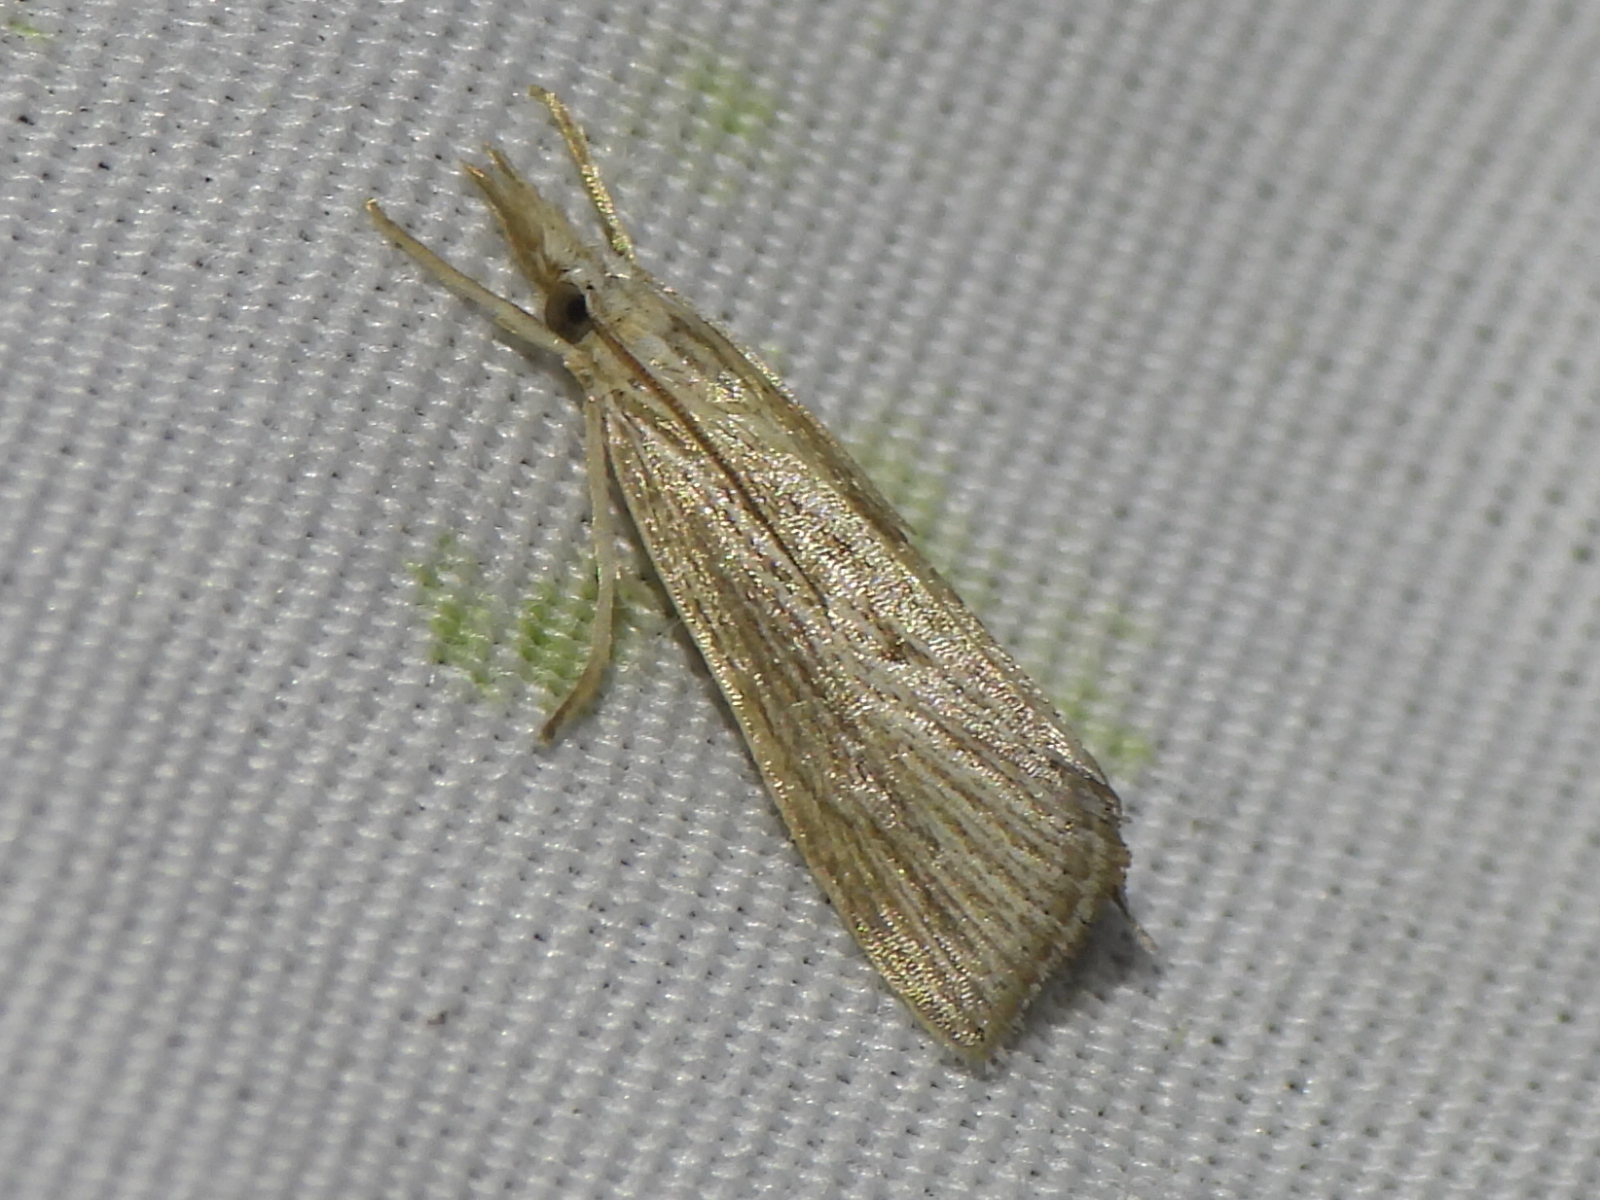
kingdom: Animalia
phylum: Arthropoda
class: Insecta
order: Lepidoptera
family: Crambidae
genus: Eoreuma
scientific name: Eoreuma densellus
